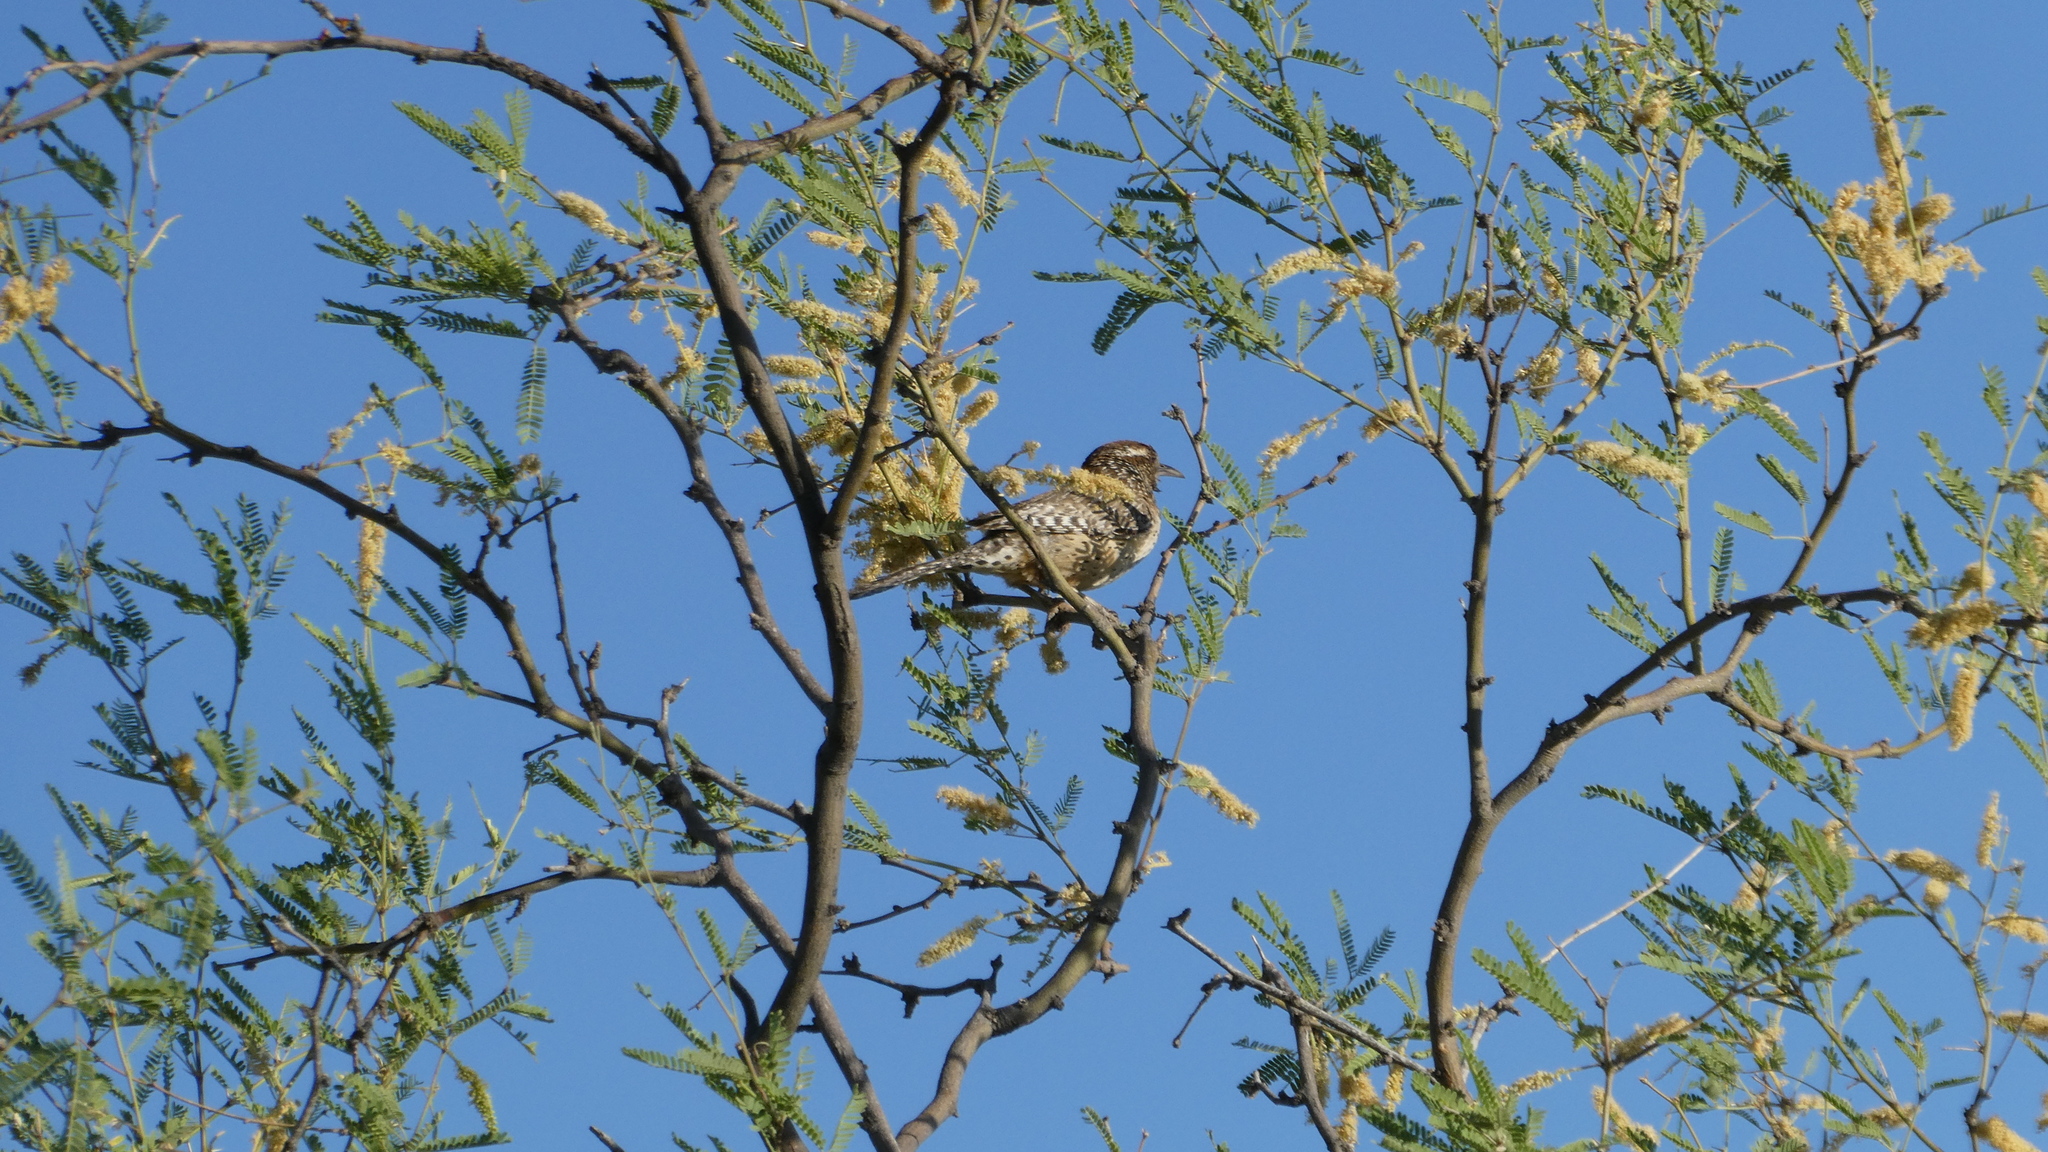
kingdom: Animalia
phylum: Chordata
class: Aves
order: Passeriformes
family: Troglodytidae
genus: Campylorhynchus
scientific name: Campylorhynchus brunneicapillus
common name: Cactus wren
